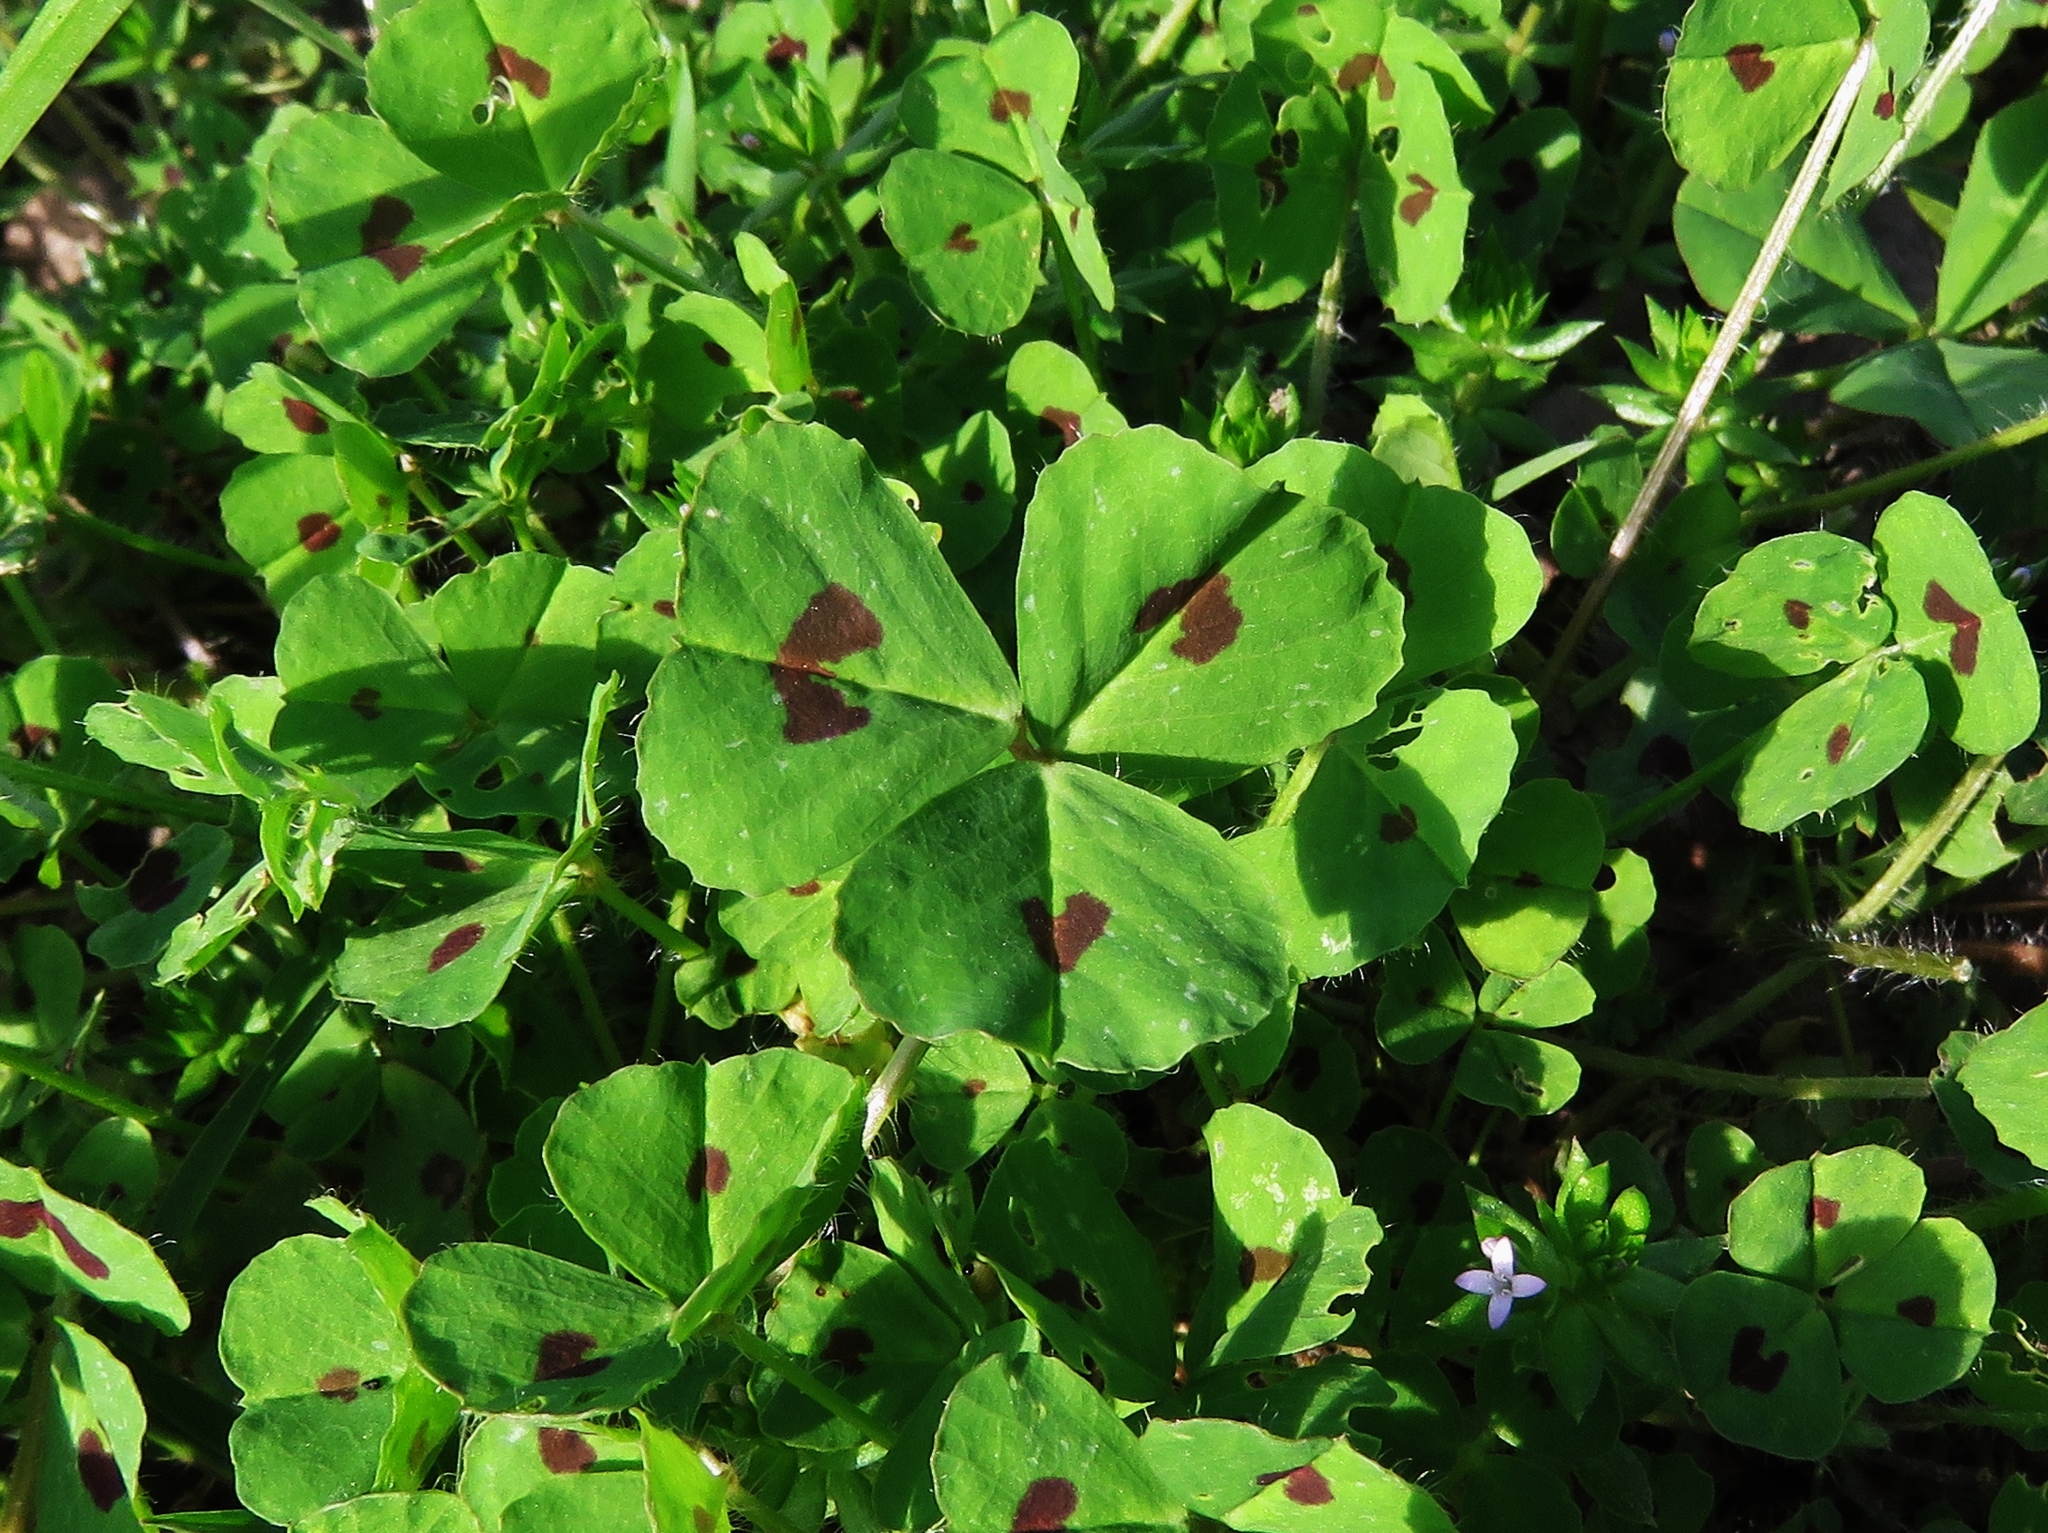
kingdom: Plantae
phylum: Tracheophyta
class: Magnoliopsida
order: Fabales
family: Fabaceae
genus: Medicago
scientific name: Medicago arabica
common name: Spotted medick
